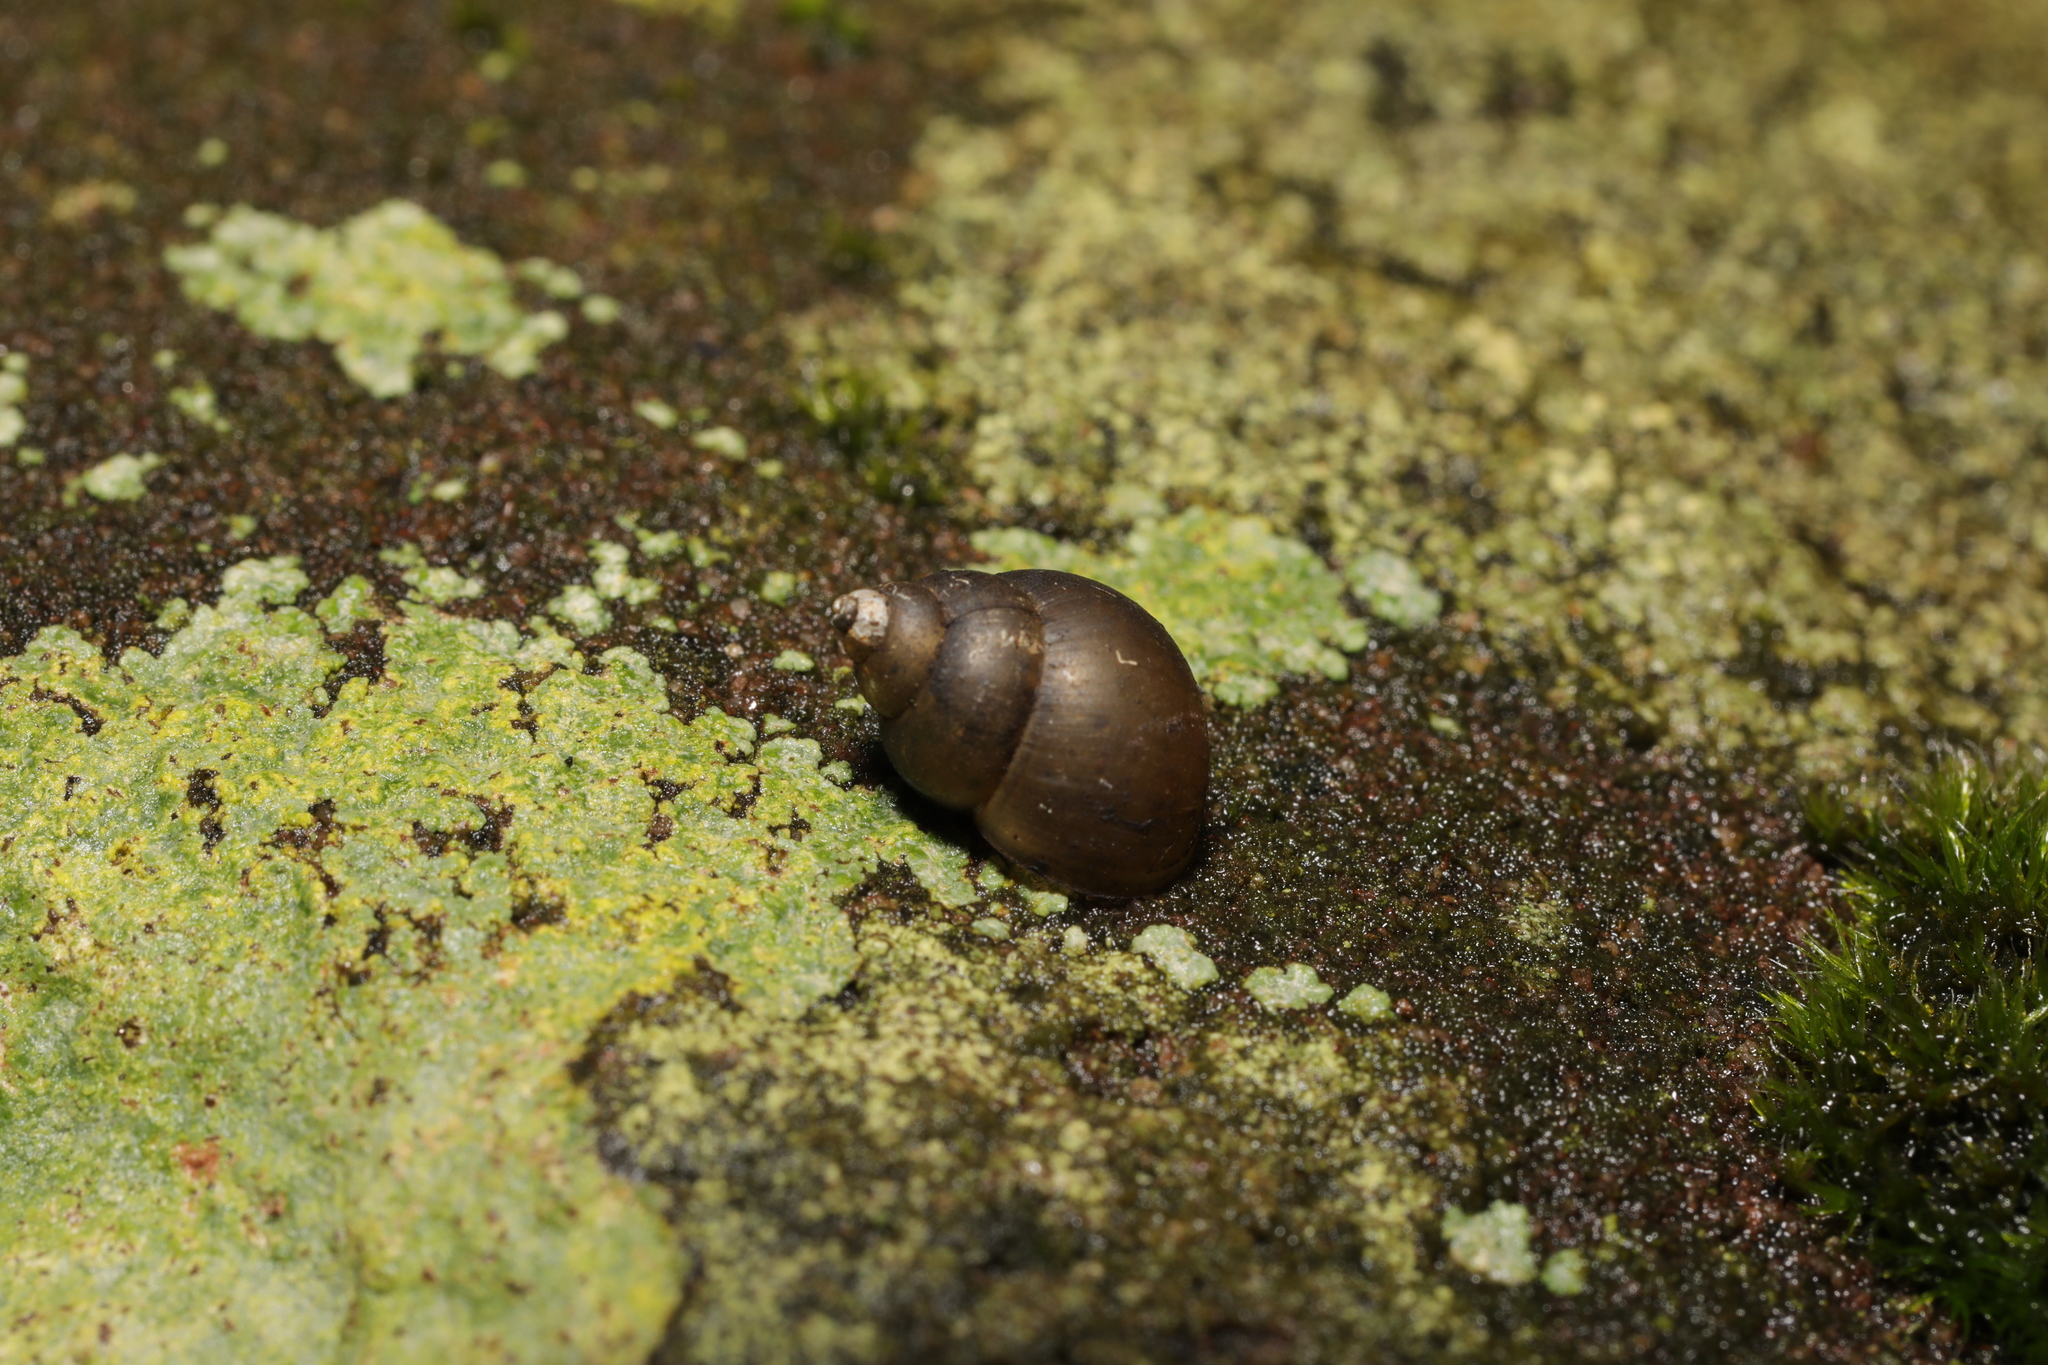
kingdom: Animalia
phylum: Mollusca
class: Gastropoda
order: Littorinimorpha
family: Bithyniidae
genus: Bithynia
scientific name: Bithynia tentaculata
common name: Common bithynia
